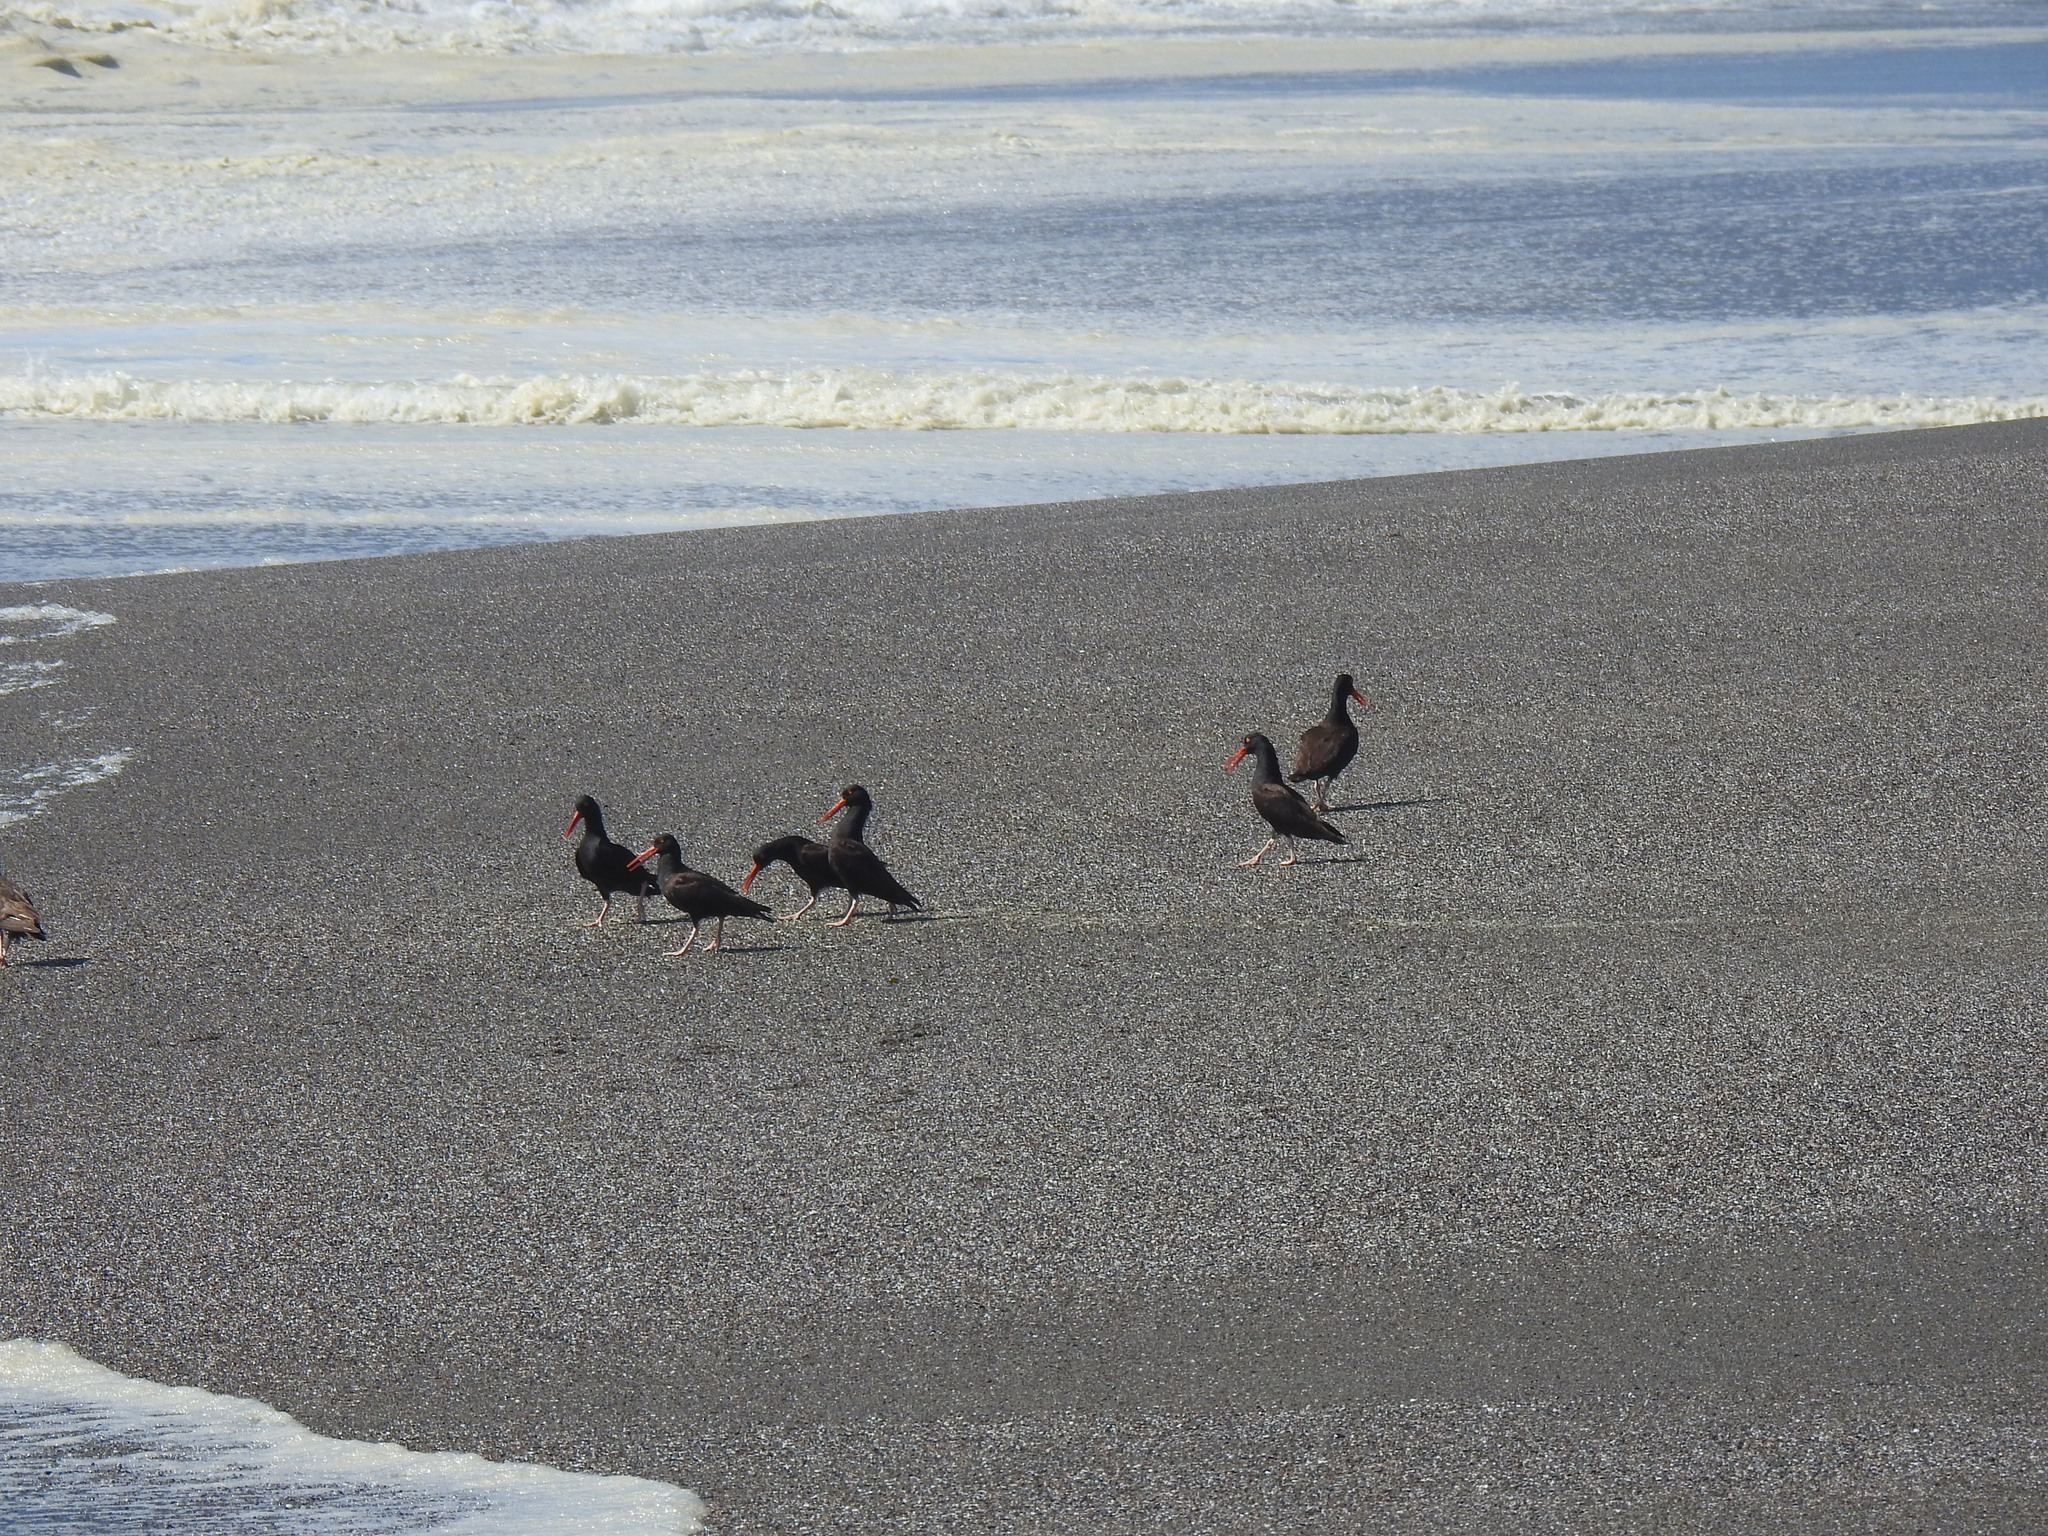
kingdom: Animalia
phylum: Chordata
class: Aves
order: Charadriiformes
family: Haematopodidae
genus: Haematopus
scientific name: Haematopus bachmani
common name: Black oystercatcher
